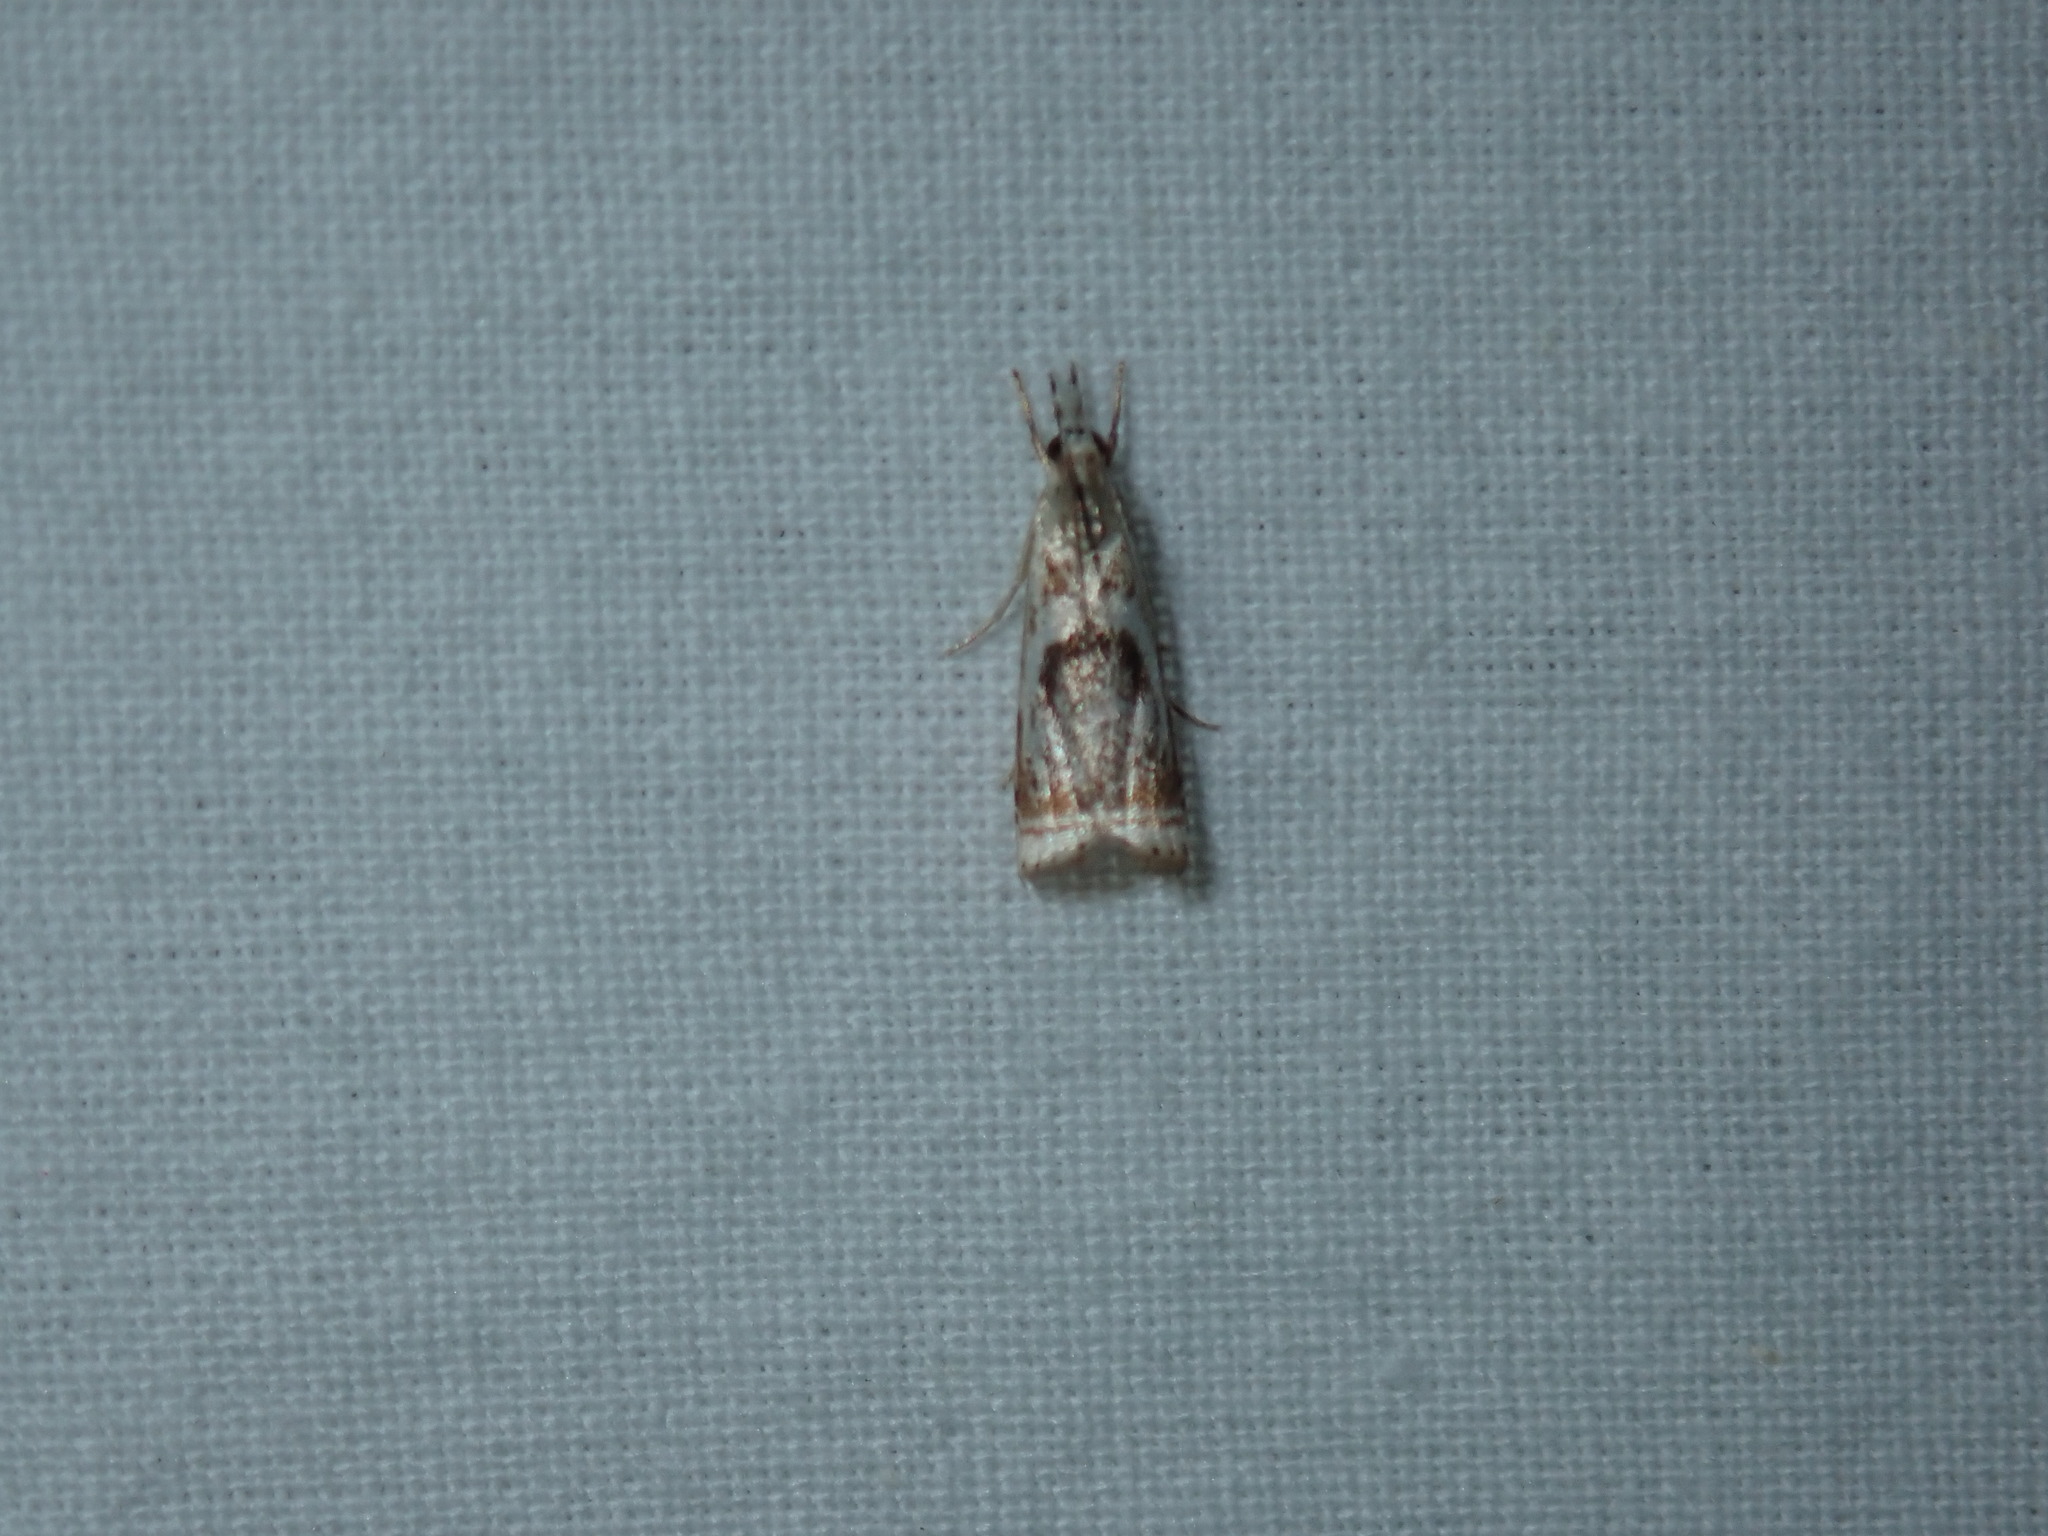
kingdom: Animalia
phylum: Arthropoda
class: Insecta
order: Lepidoptera
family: Crambidae
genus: Microcrambus
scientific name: Microcrambus elegans
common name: Elegant grass-veneer
